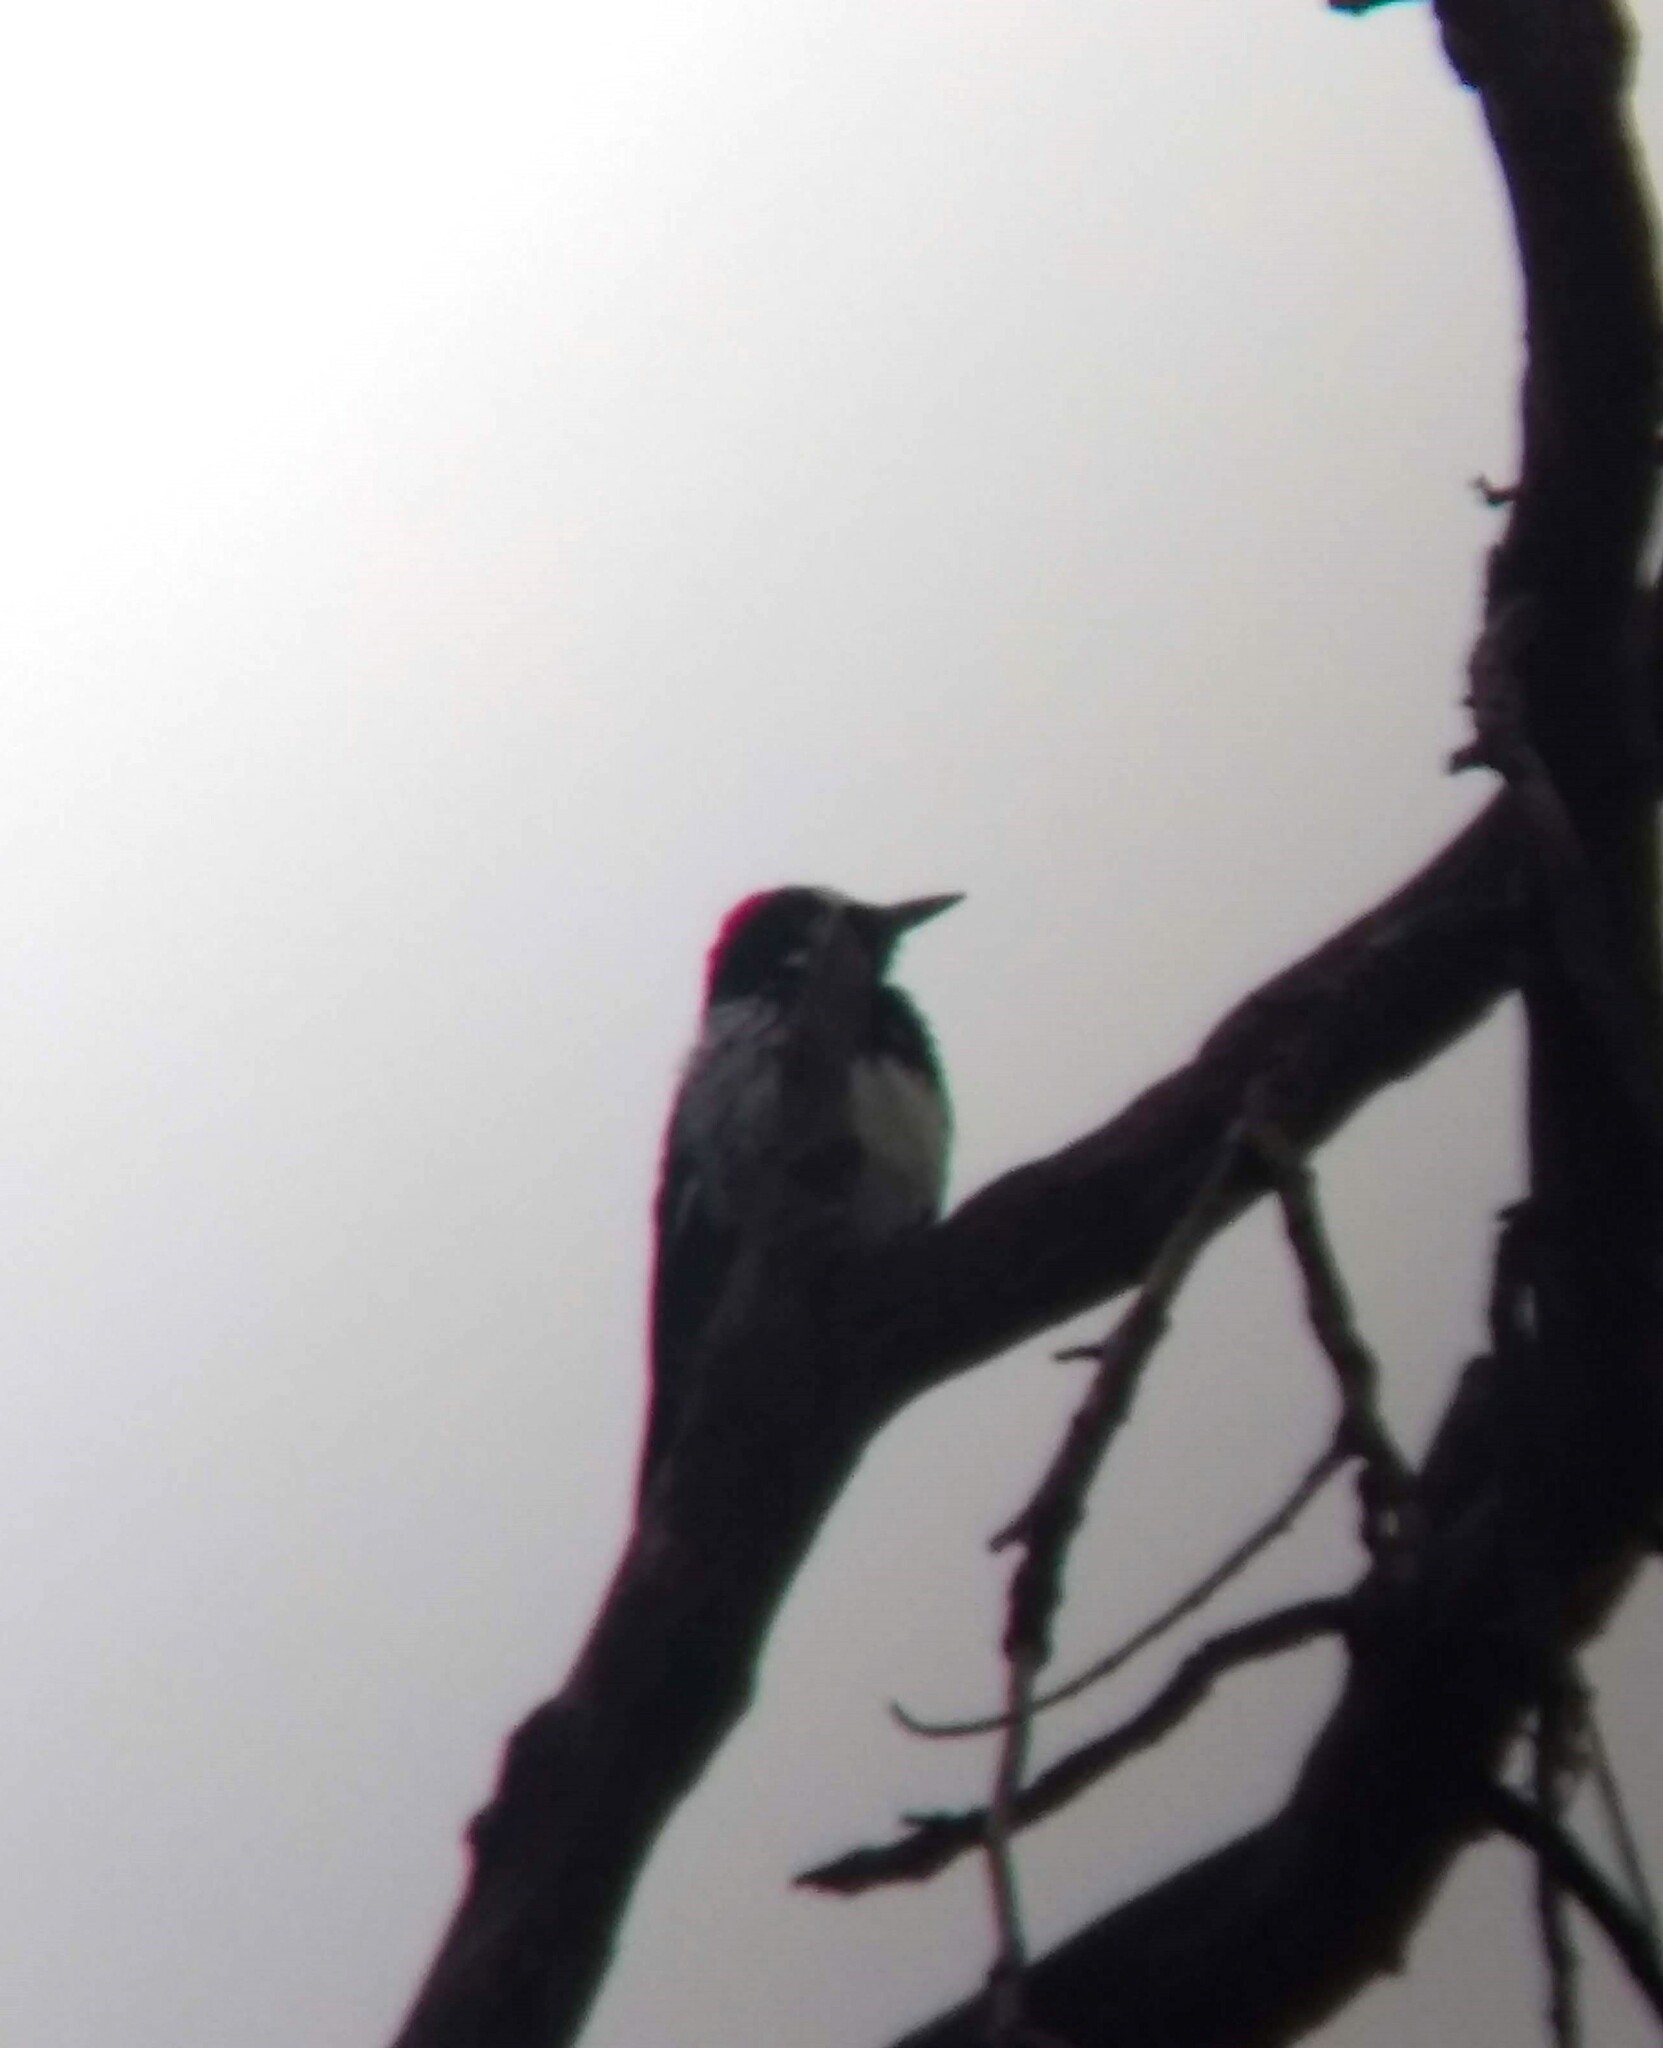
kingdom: Animalia
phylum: Chordata
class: Aves
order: Piciformes
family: Picidae
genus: Melanerpes
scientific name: Melanerpes formicivorus
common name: Acorn woodpecker
